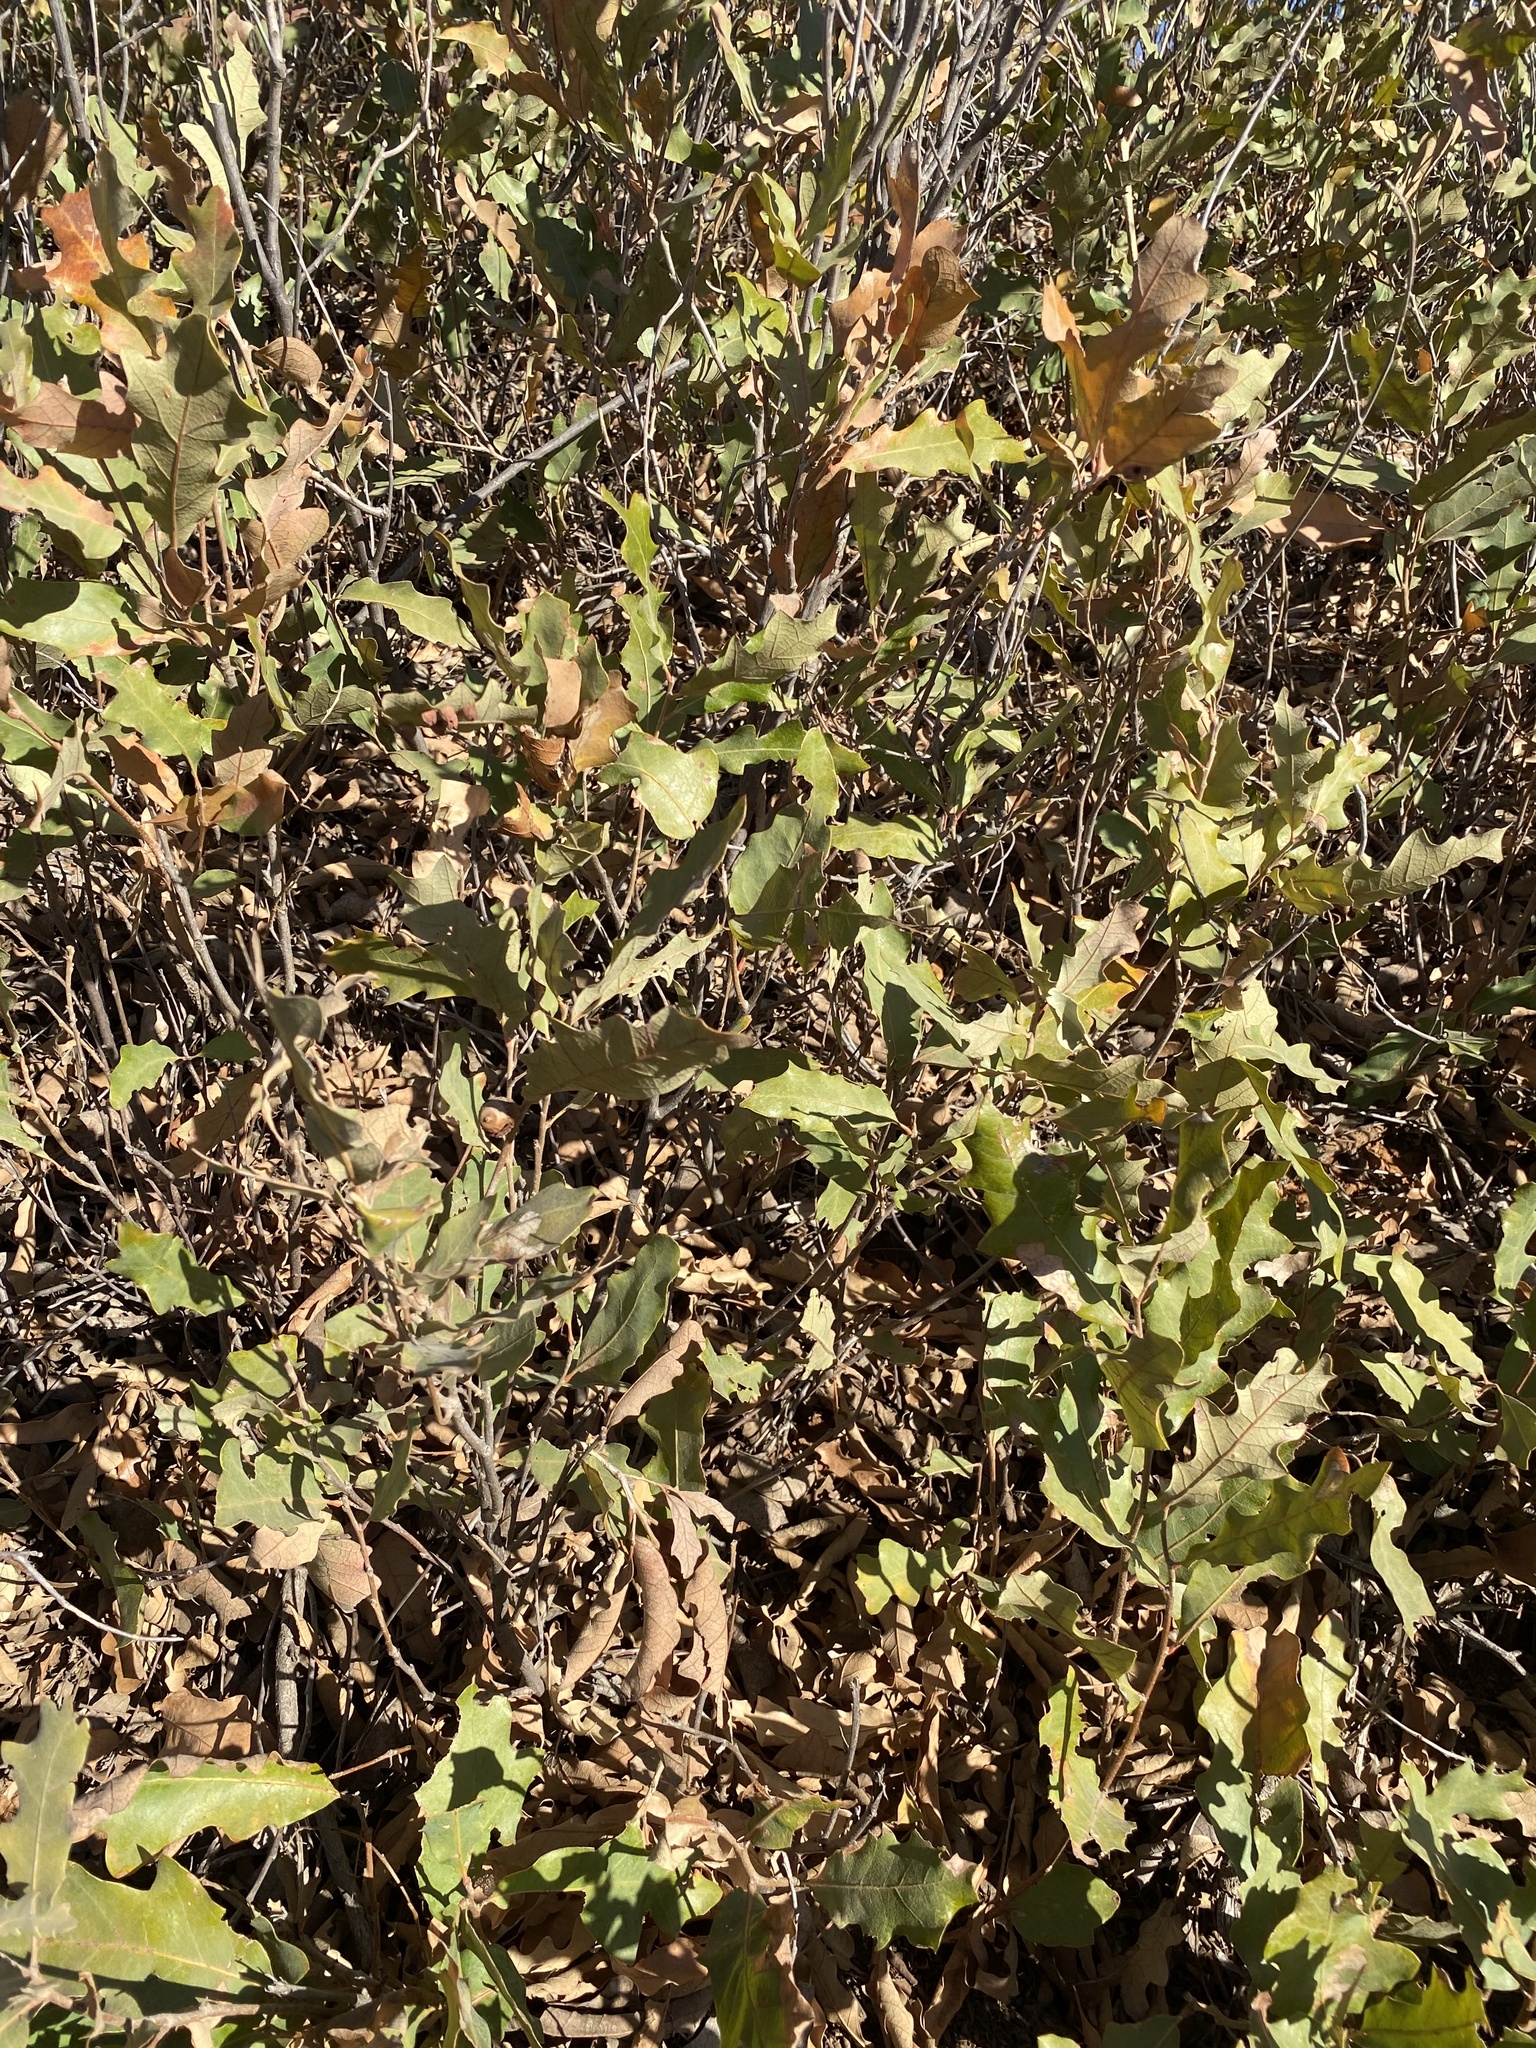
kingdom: Plantae
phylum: Tracheophyta
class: Magnoliopsida
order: Fagales
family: Fagaceae
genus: Quercus
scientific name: Quercus havardii
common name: Shinnery oak
